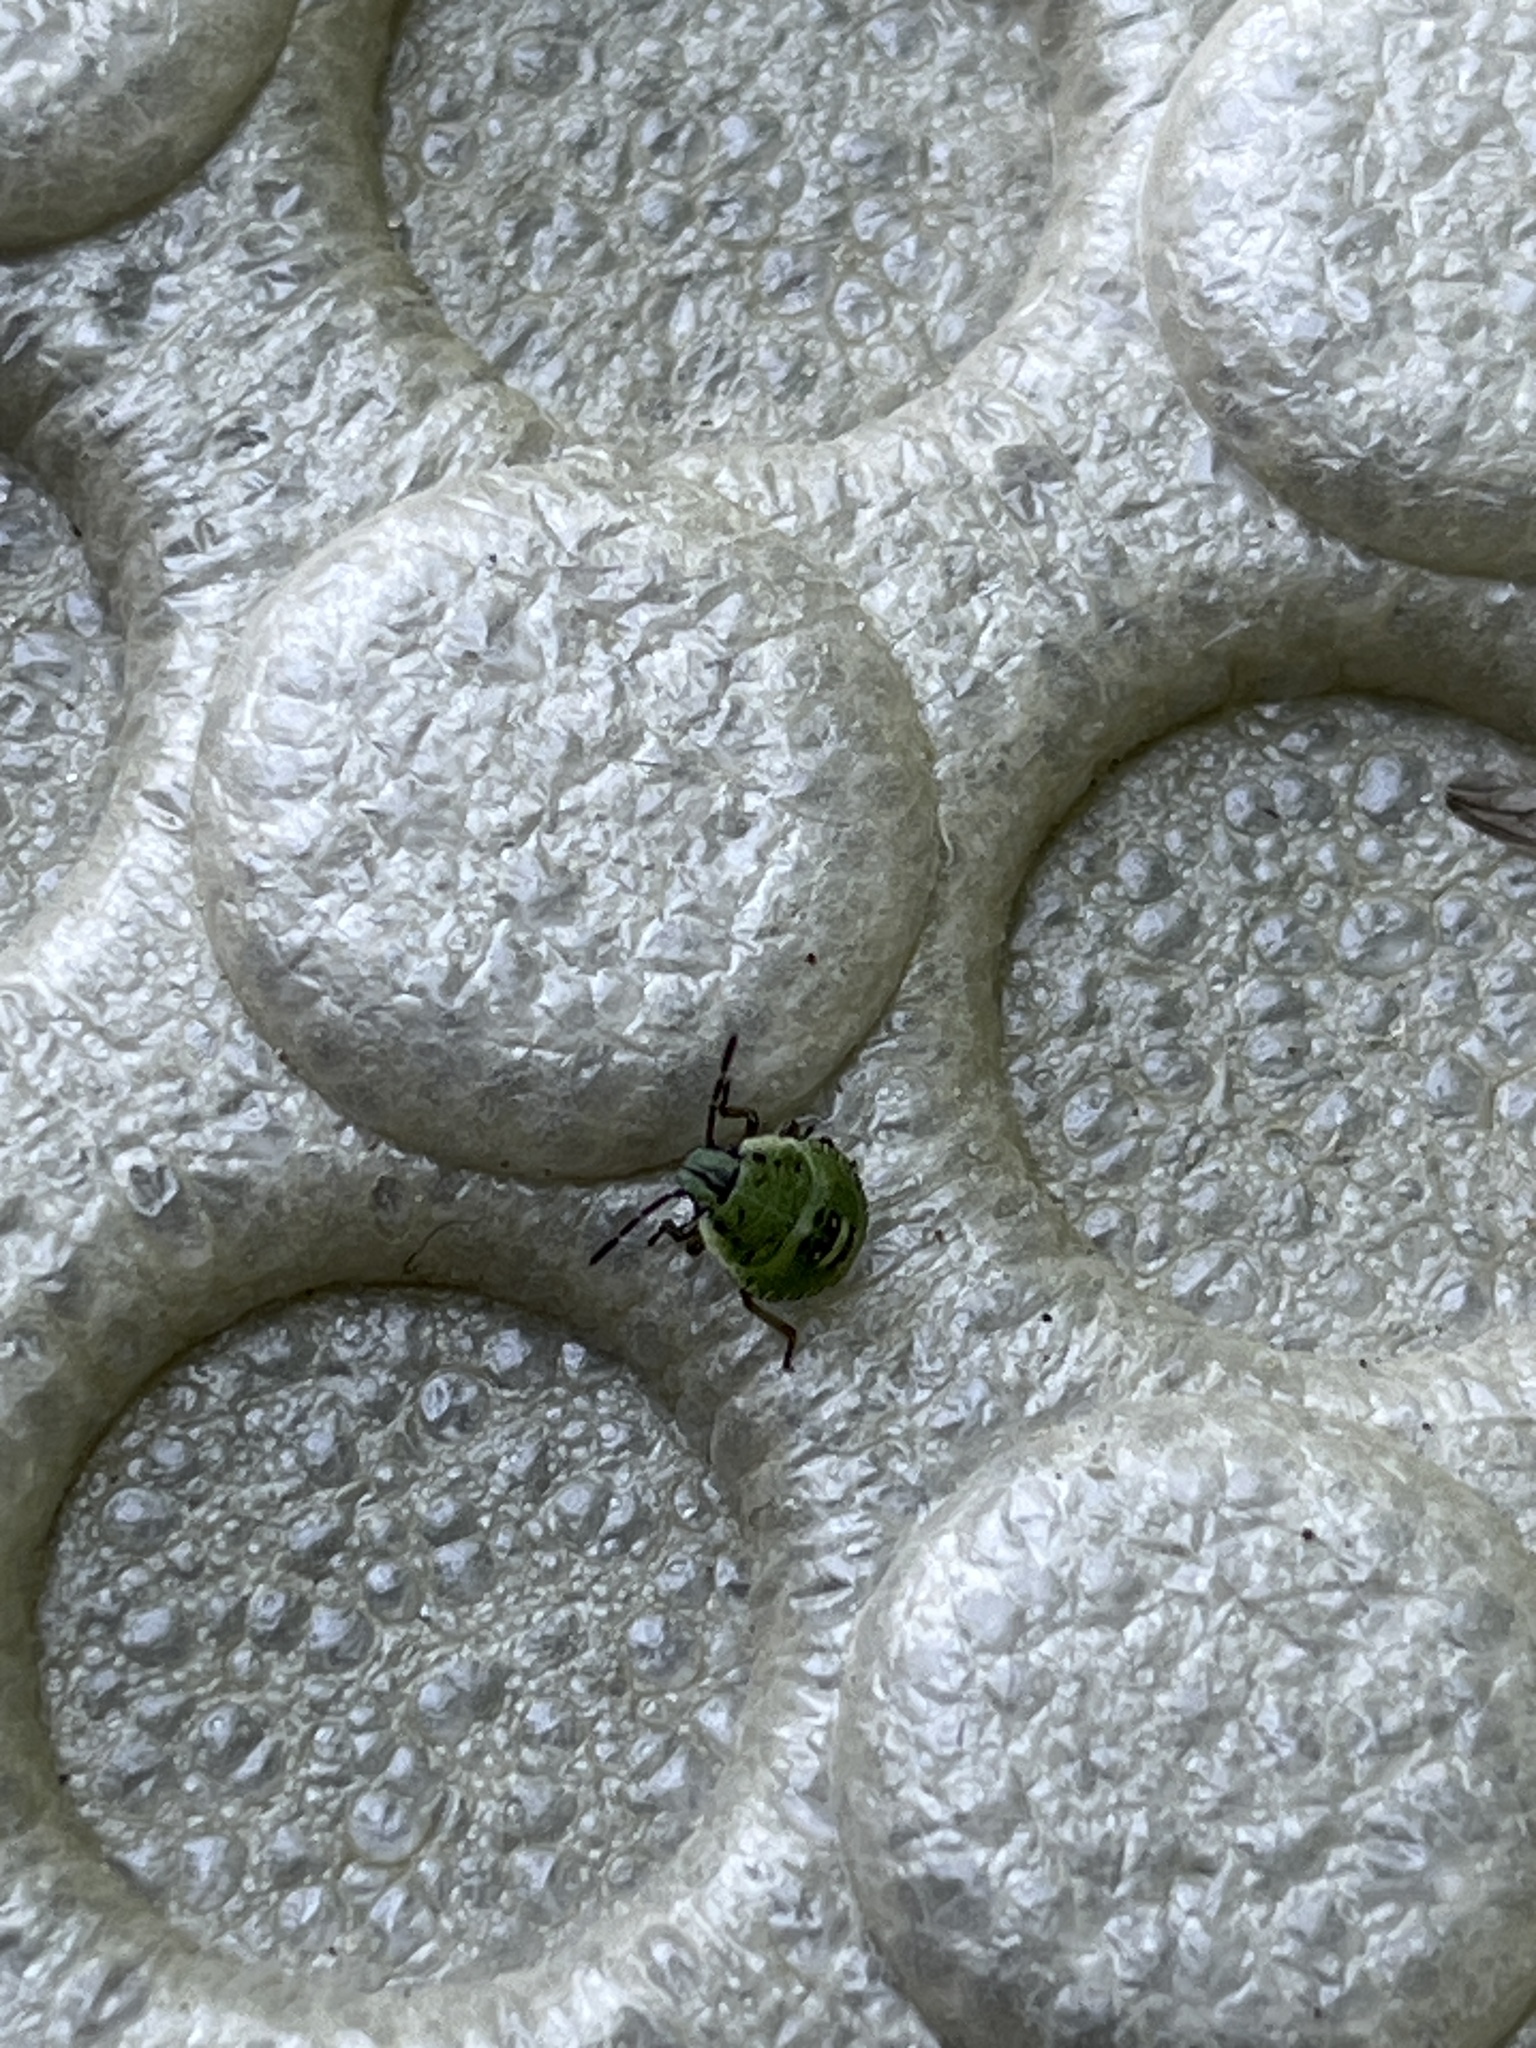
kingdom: Animalia
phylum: Arthropoda
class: Insecta
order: Hemiptera
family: Pentatomidae
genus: Palomena
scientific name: Palomena prasina
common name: Green shieldbug
